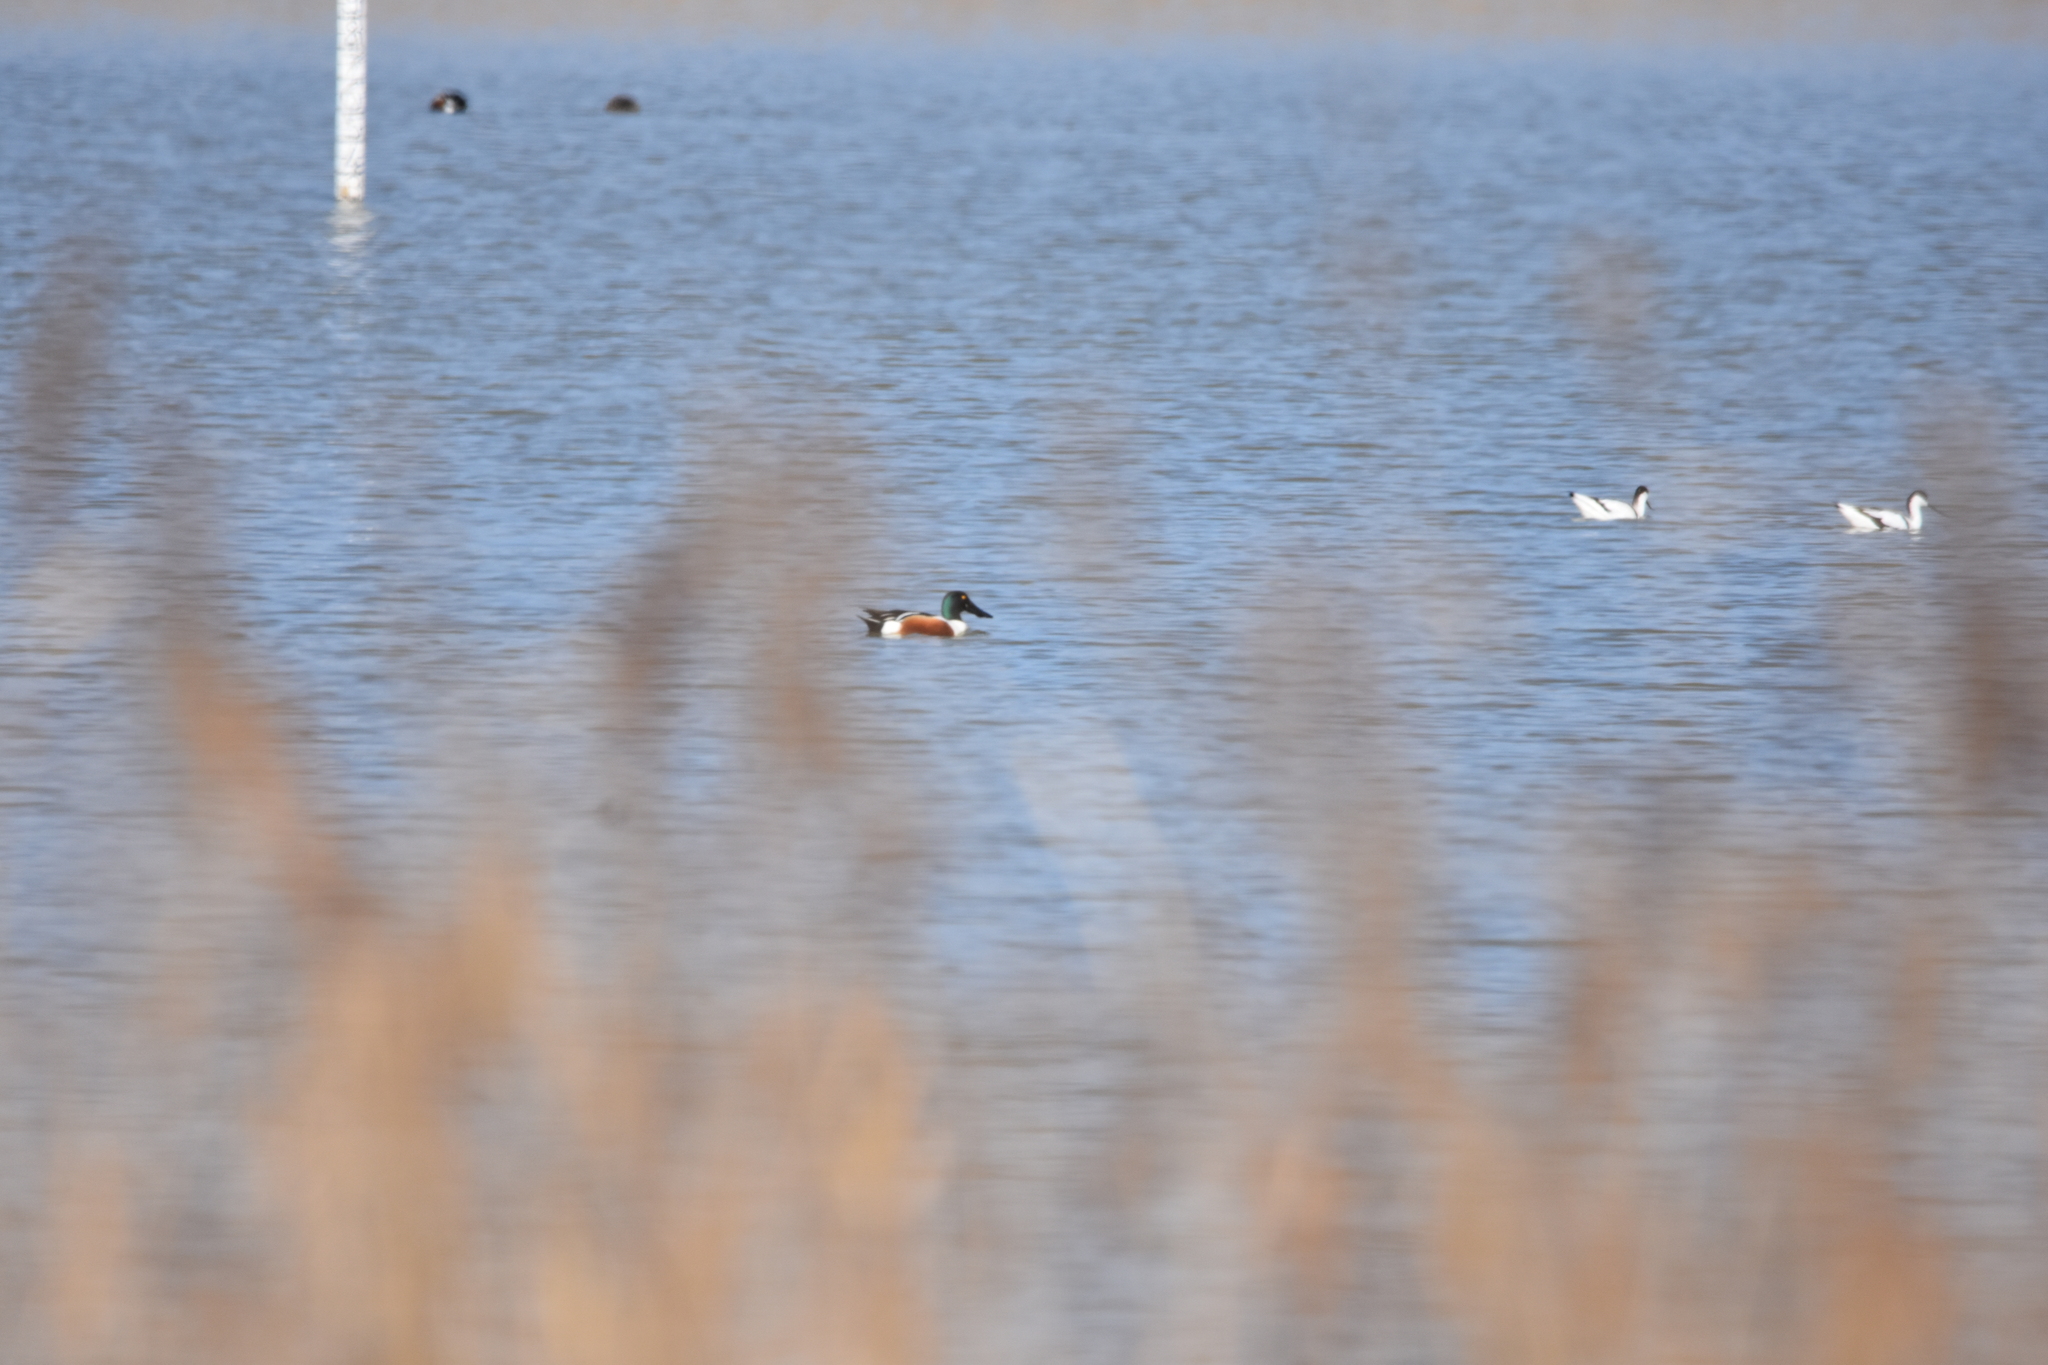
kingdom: Animalia
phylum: Chordata
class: Aves
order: Anseriformes
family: Anatidae
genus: Spatula
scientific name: Spatula clypeata
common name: Northern shoveler
